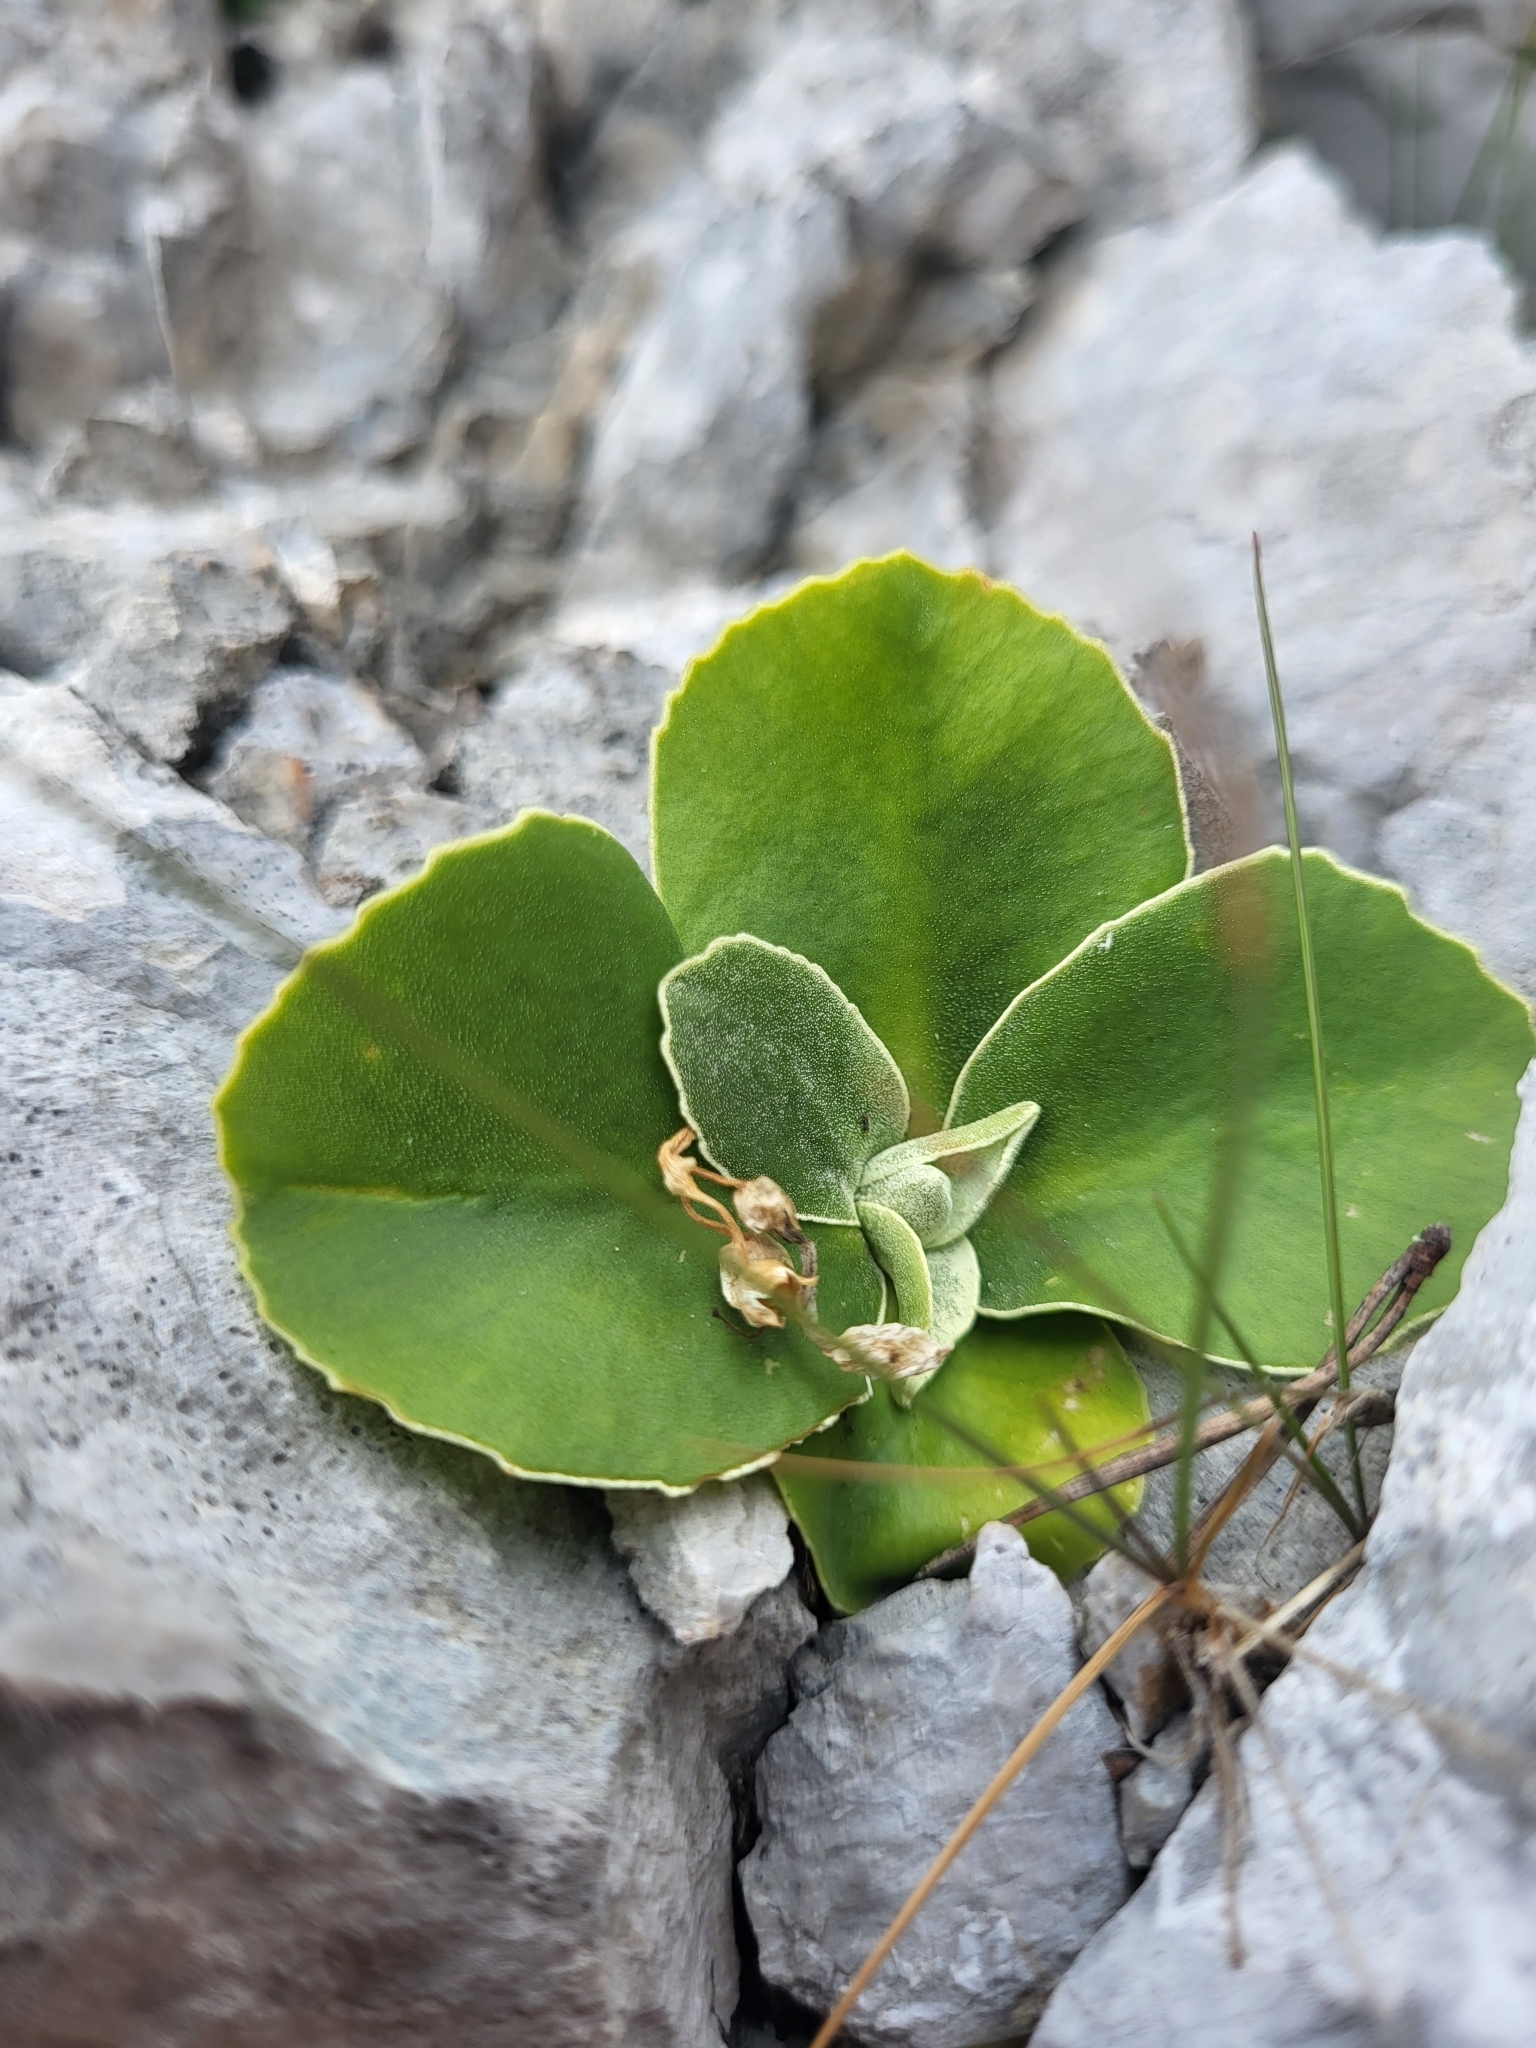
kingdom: Plantae
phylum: Tracheophyta
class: Magnoliopsida
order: Ericales
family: Primulaceae
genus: Primula
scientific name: Primula auricula
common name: Auricula
